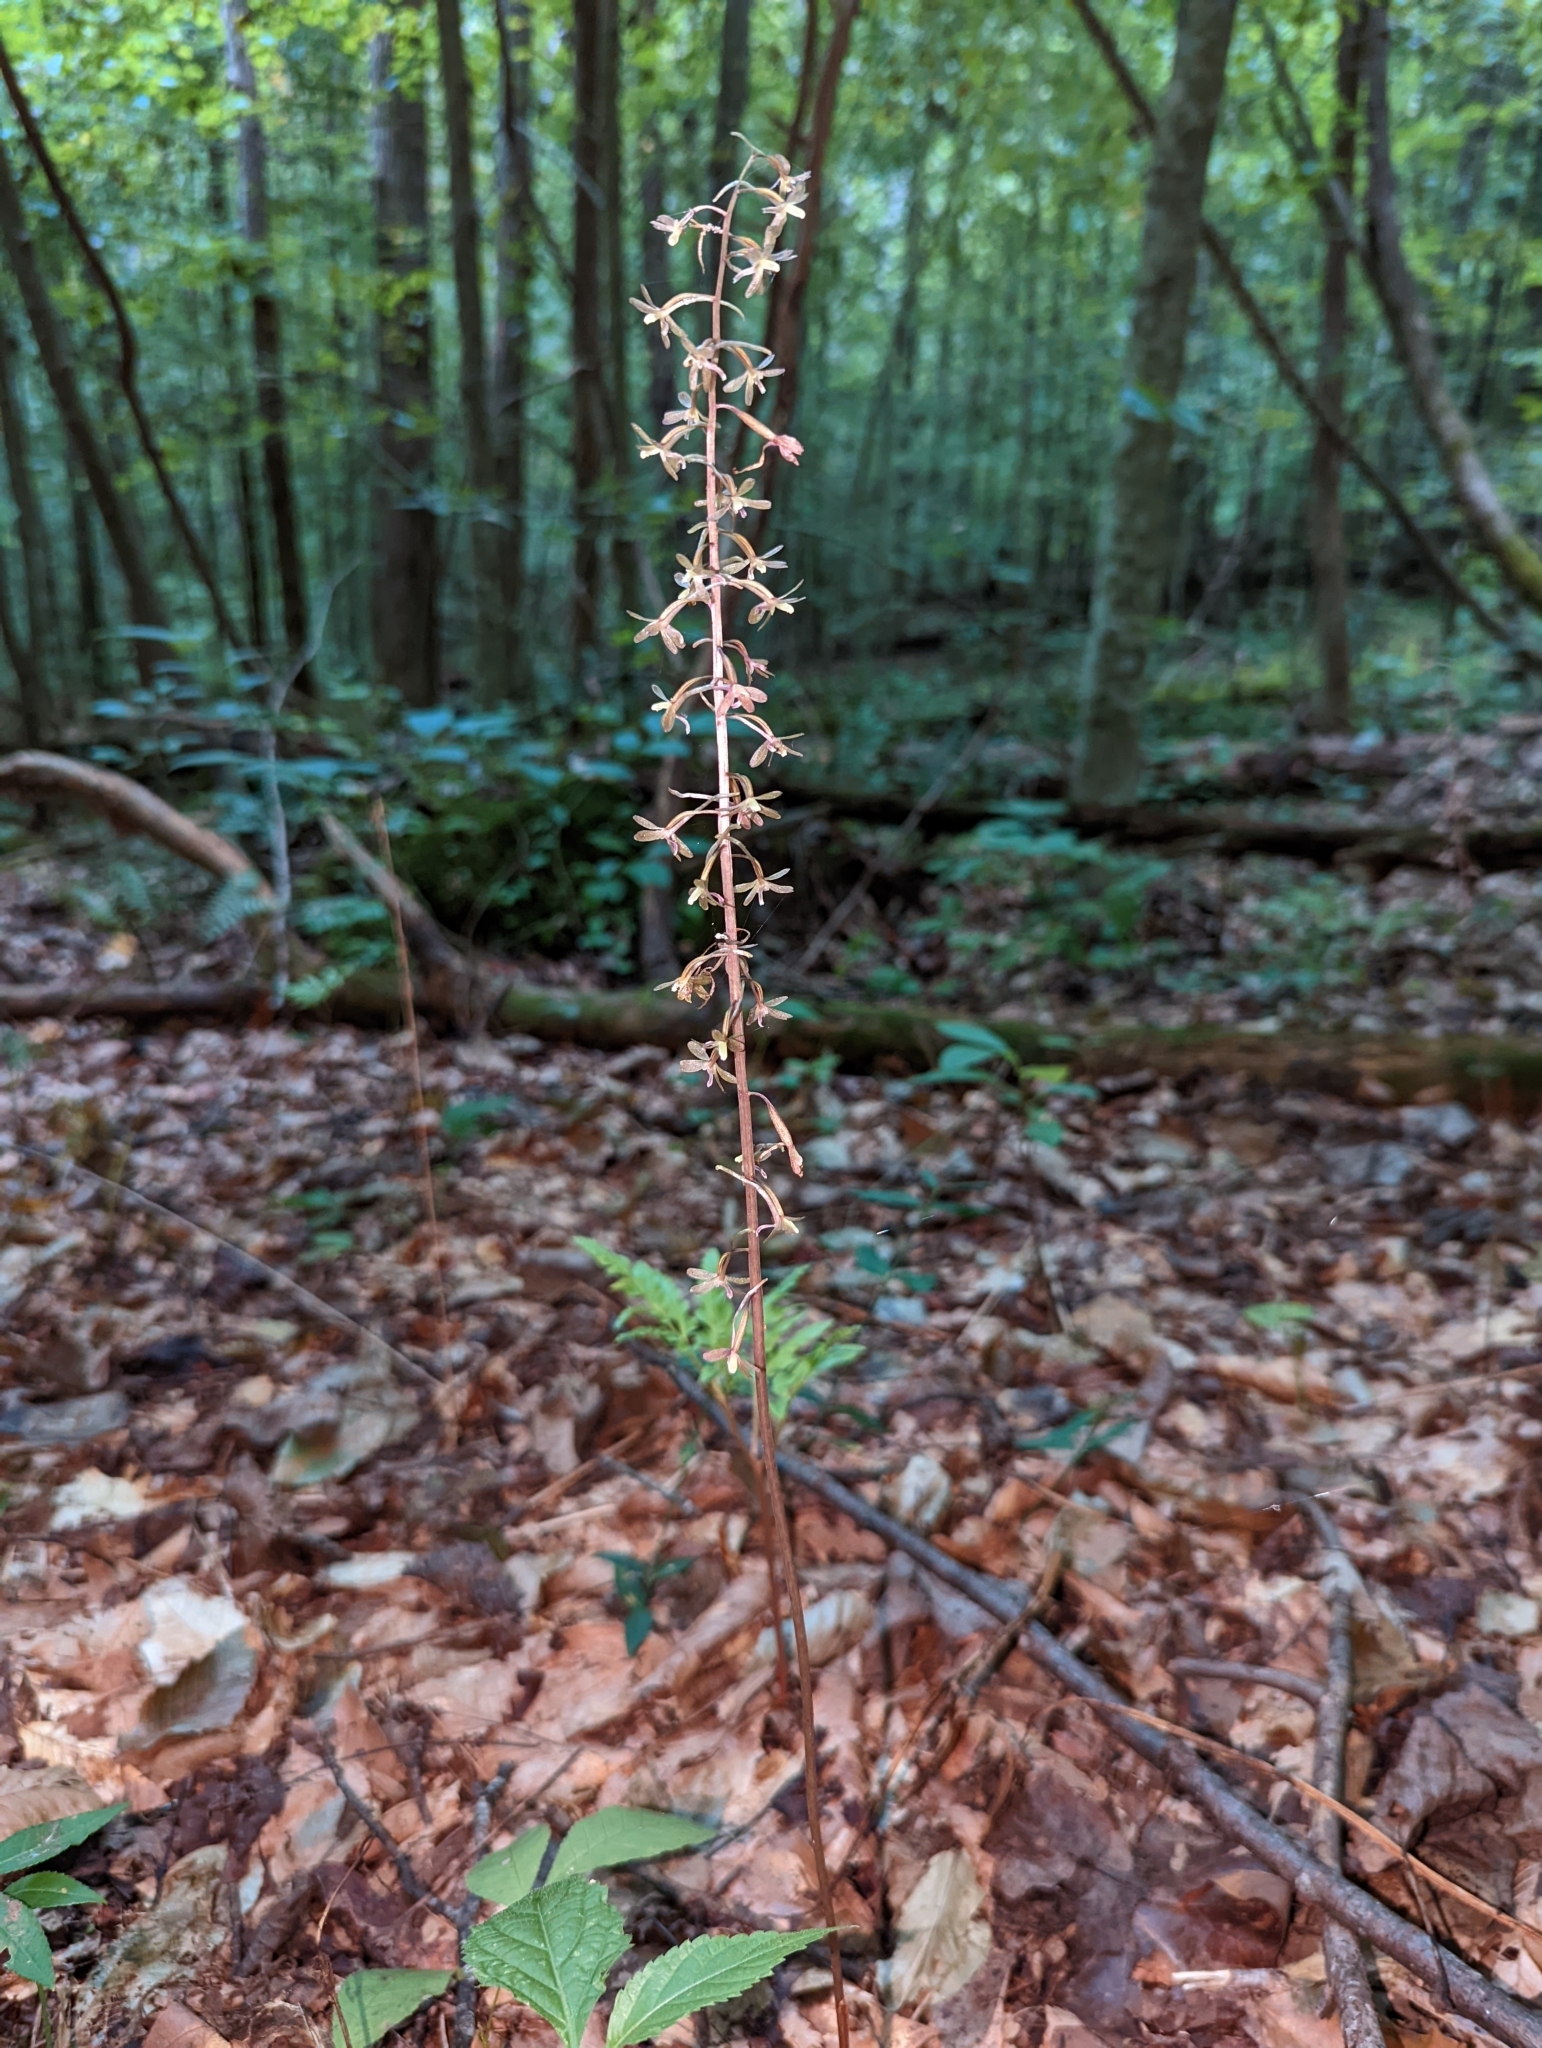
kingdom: Plantae
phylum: Tracheophyta
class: Liliopsida
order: Asparagales
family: Orchidaceae
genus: Tipularia
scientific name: Tipularia discolor
